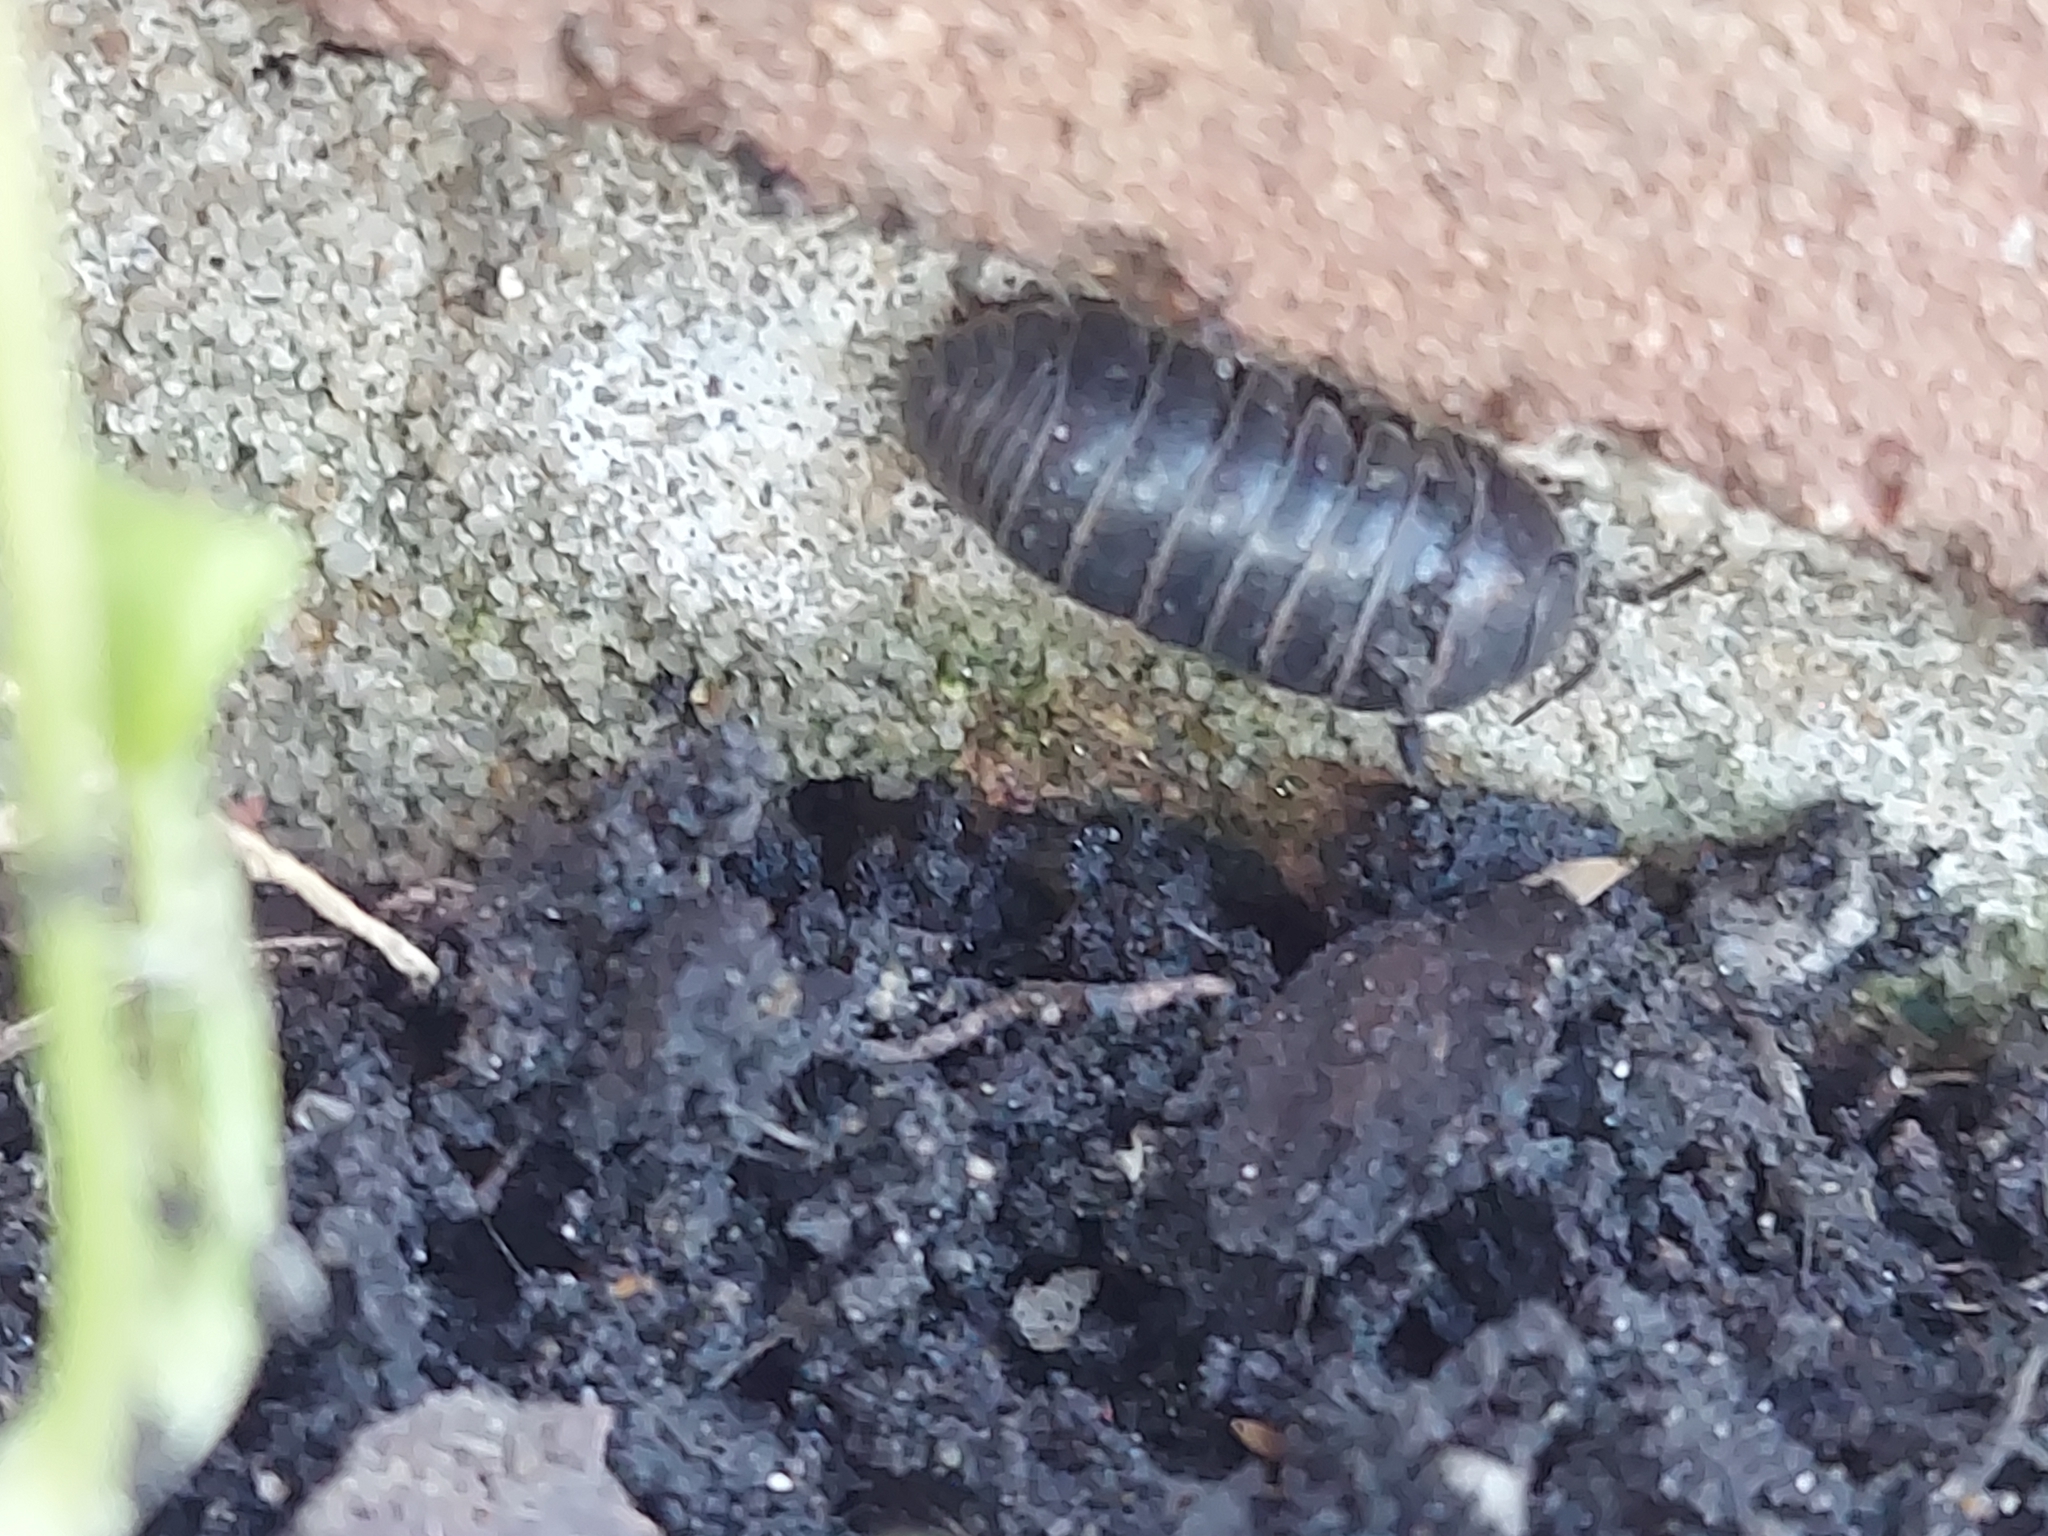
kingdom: Animalia
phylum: Arthropoda
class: Malacostraca
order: Isopoda
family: Armadillidiidae
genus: Armadillidium
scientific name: Armadillidium vulgare
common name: Common pill woodlouse
